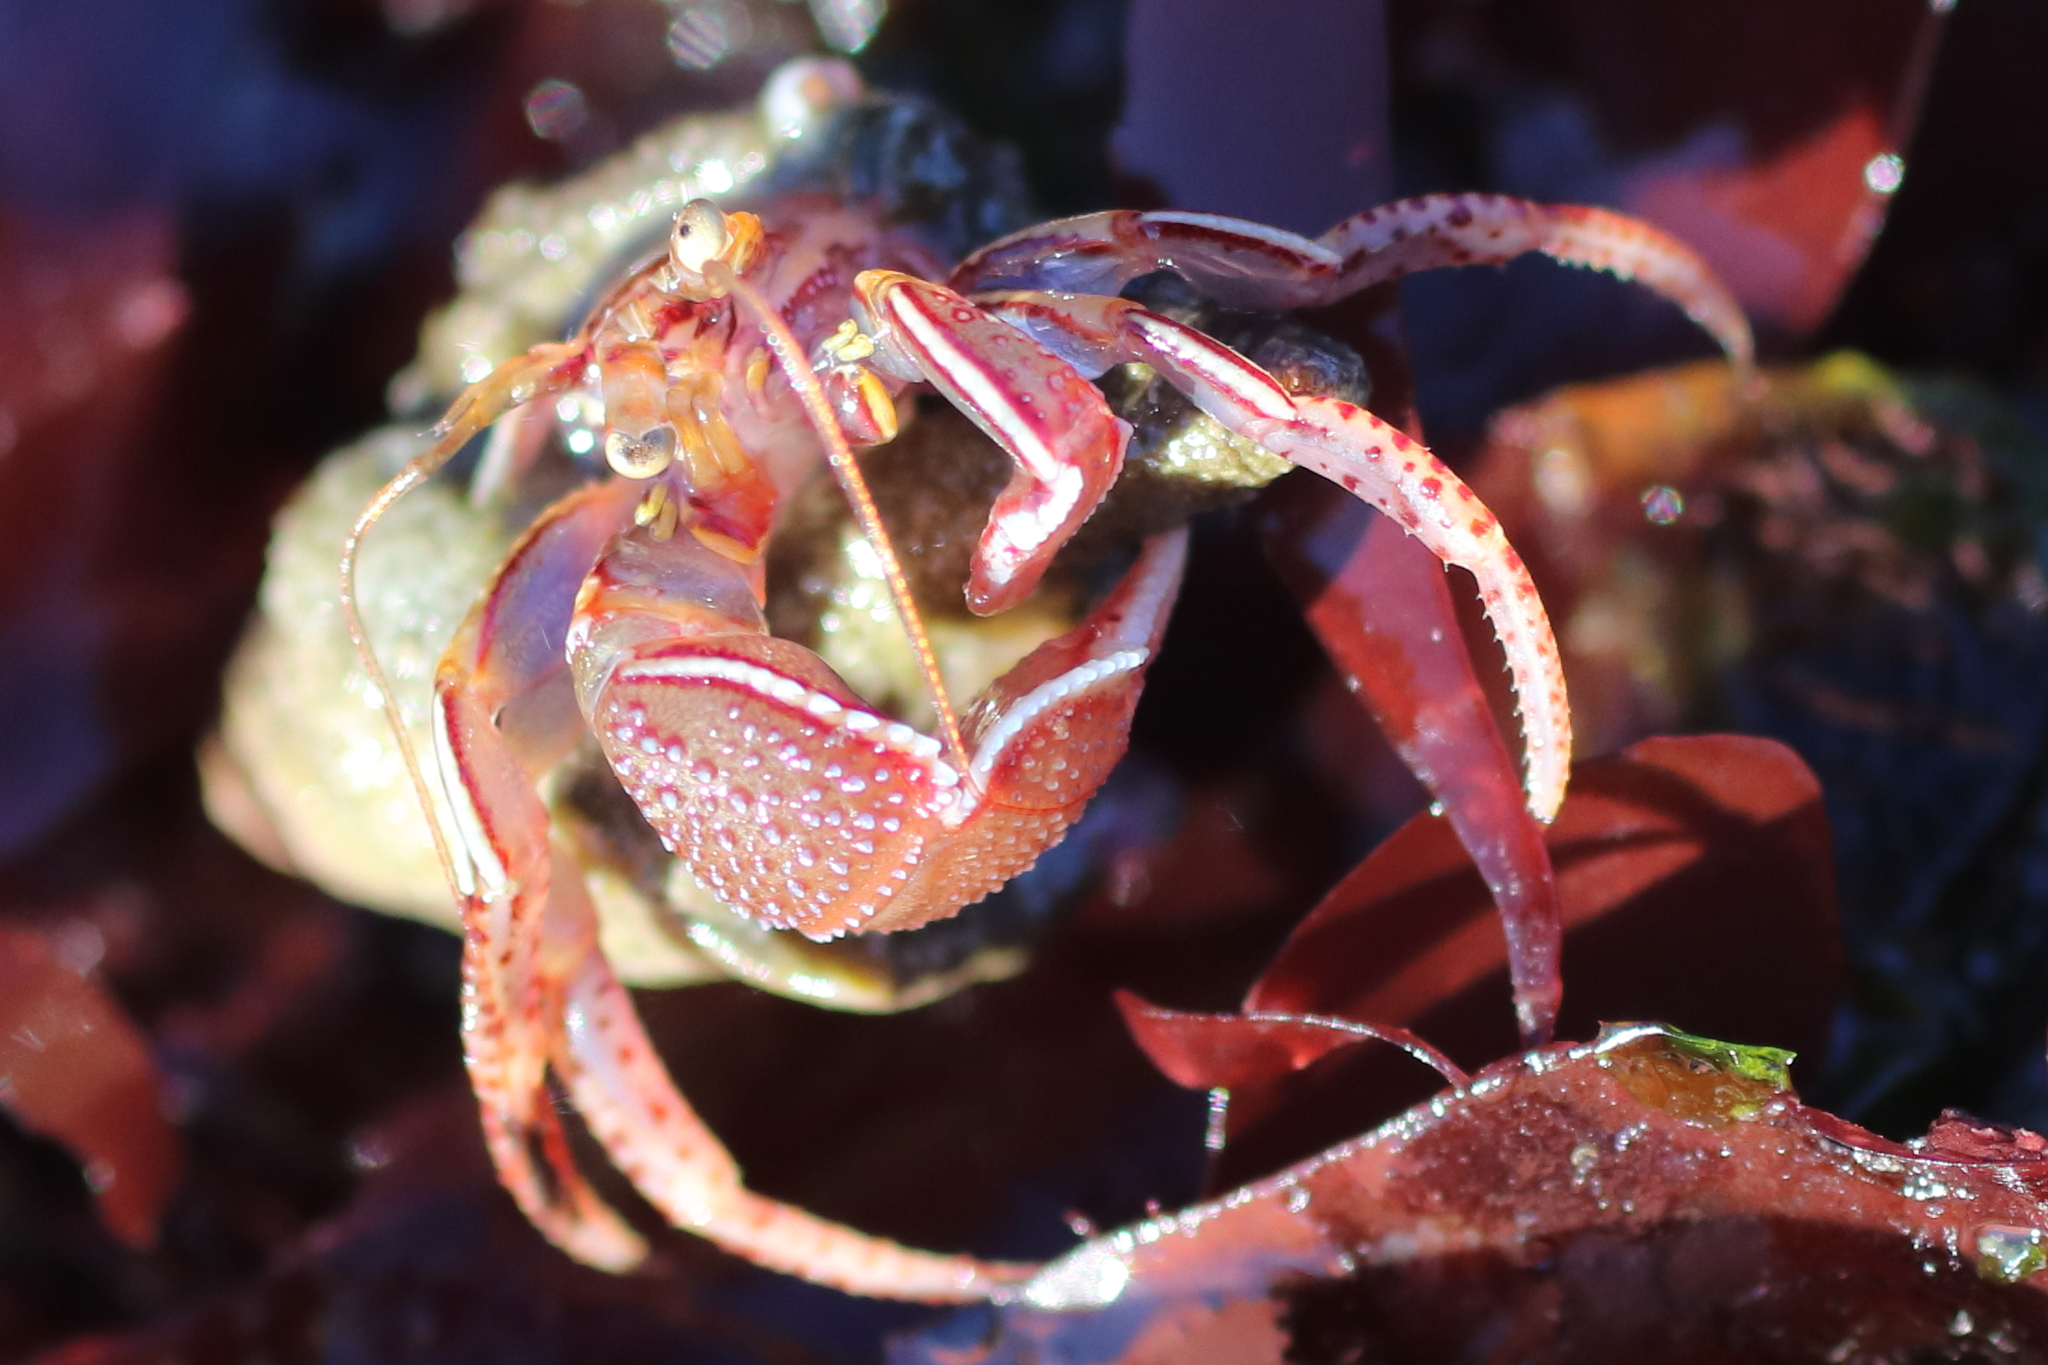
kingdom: Animalia
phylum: Arthropoda
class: Malacostraca
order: Decapoda
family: Paguridae
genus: Elassochirus
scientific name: Elassochirus tenuimanus
